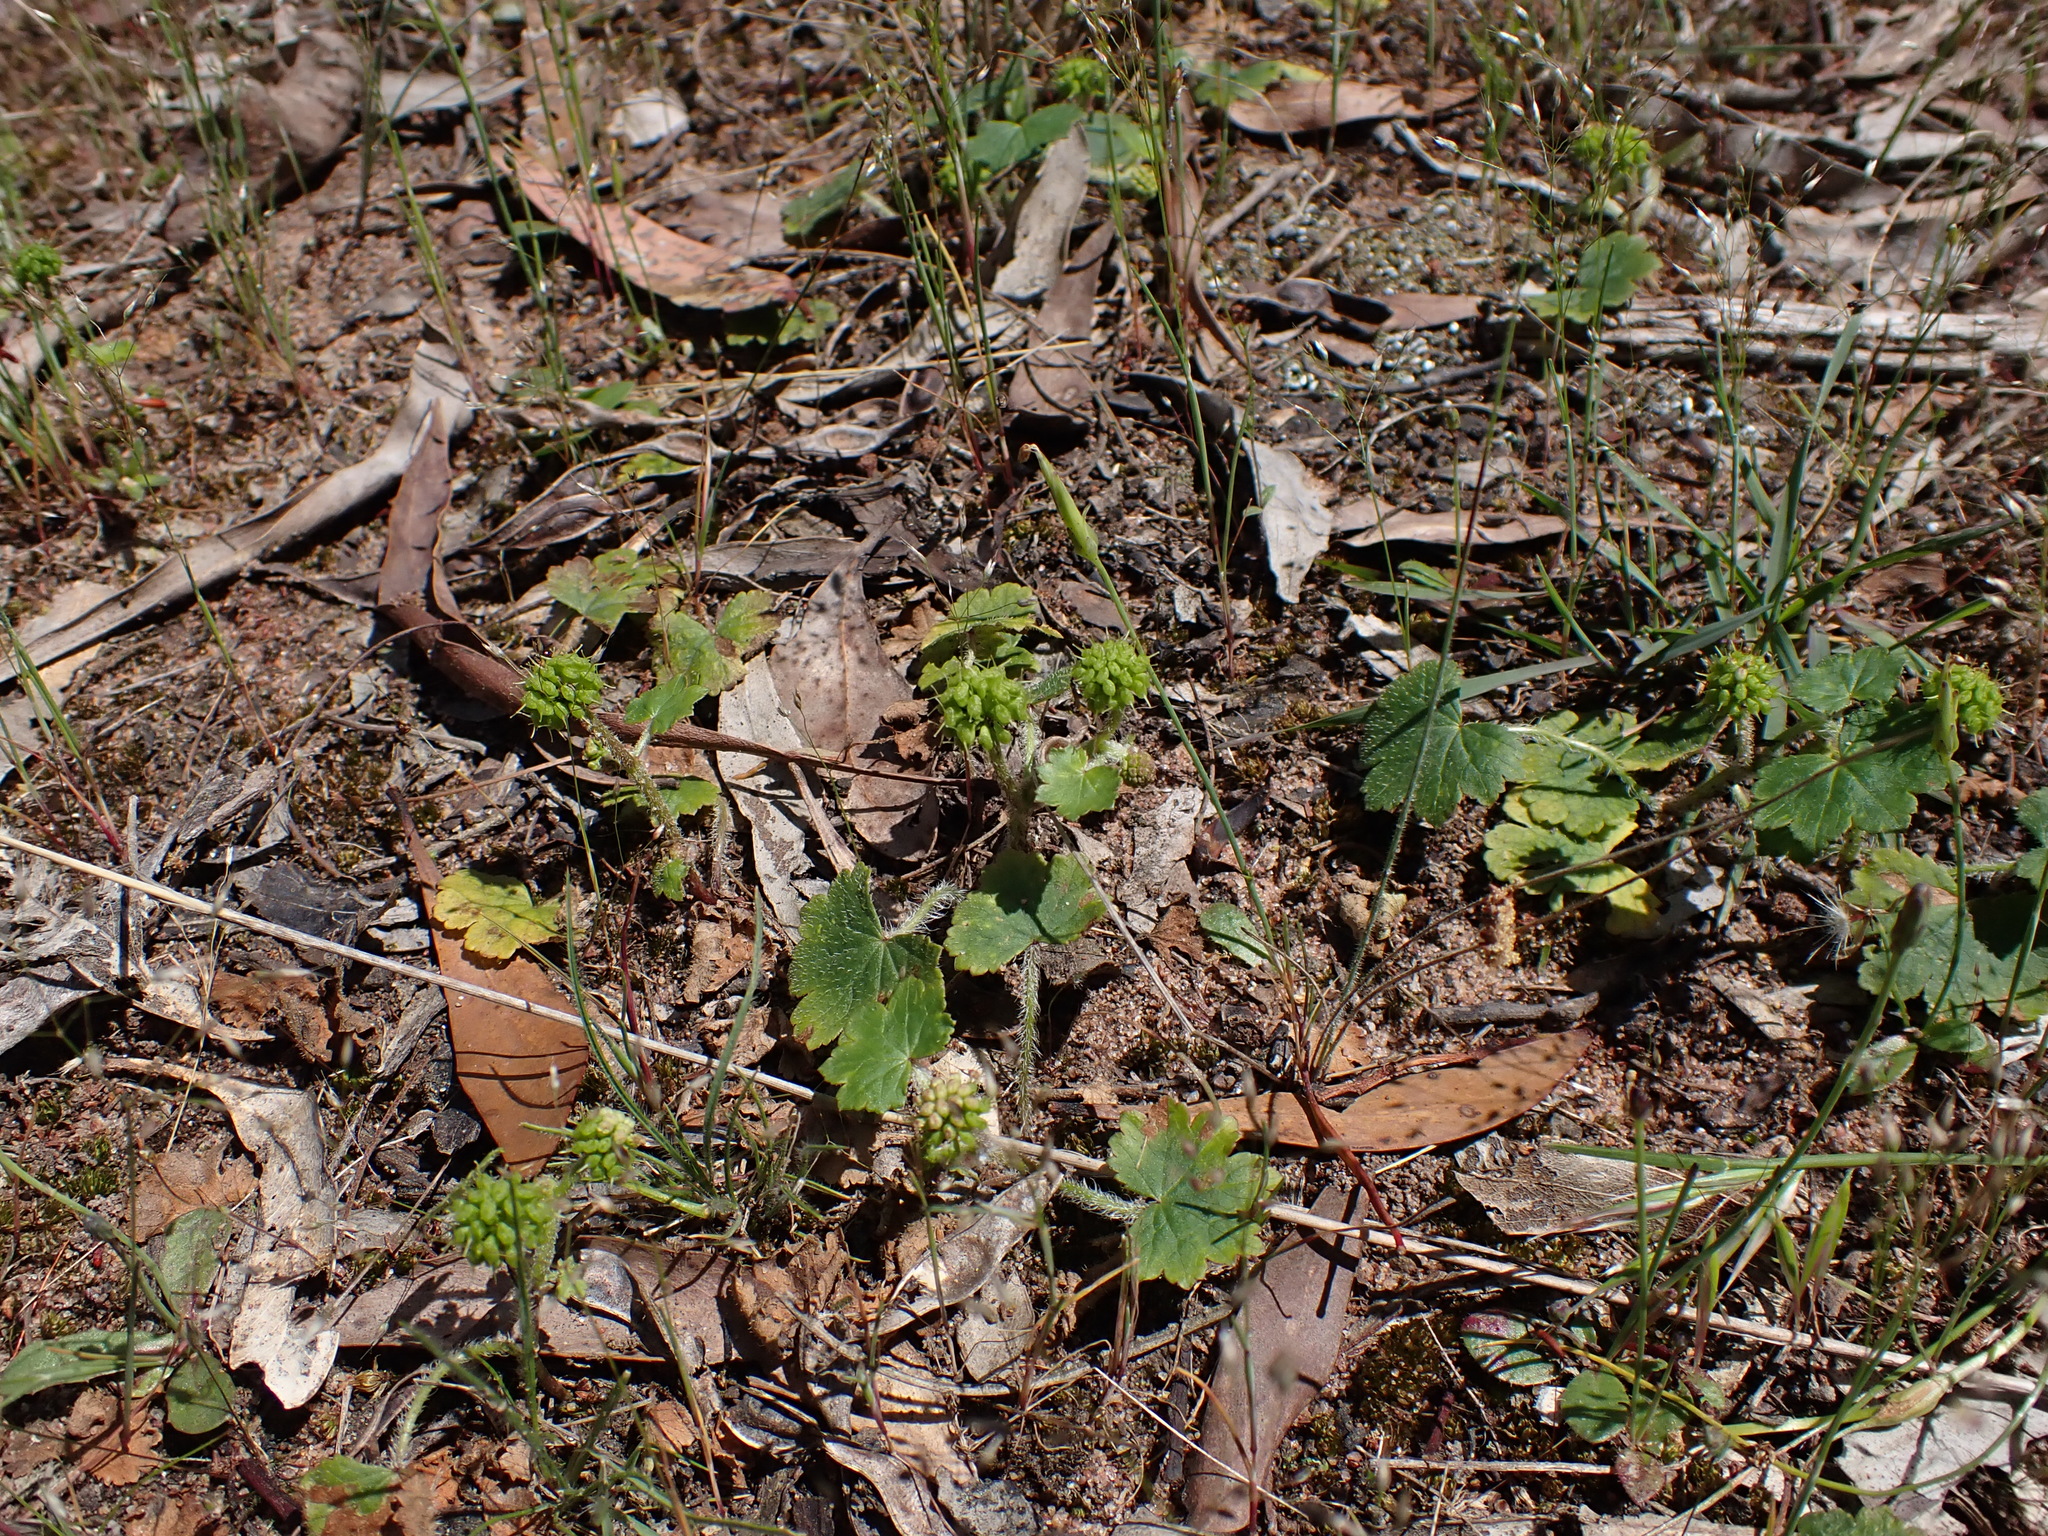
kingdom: Plantae
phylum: Tracheophyta
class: Magnoliopsida
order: Apiales
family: Araliaceae
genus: Hydrocotyle
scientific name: Hydrocotyle laxiflora
